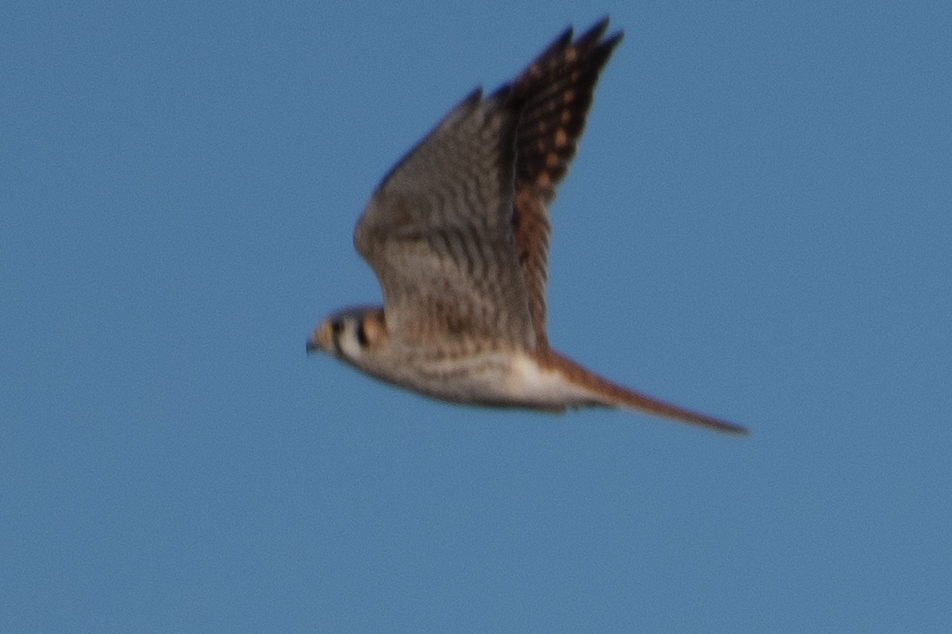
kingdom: Animalia
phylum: Chordata
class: Aves
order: Falconiformes
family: Falconidae
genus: Falco
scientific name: Falco sparverius
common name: American kestrel
